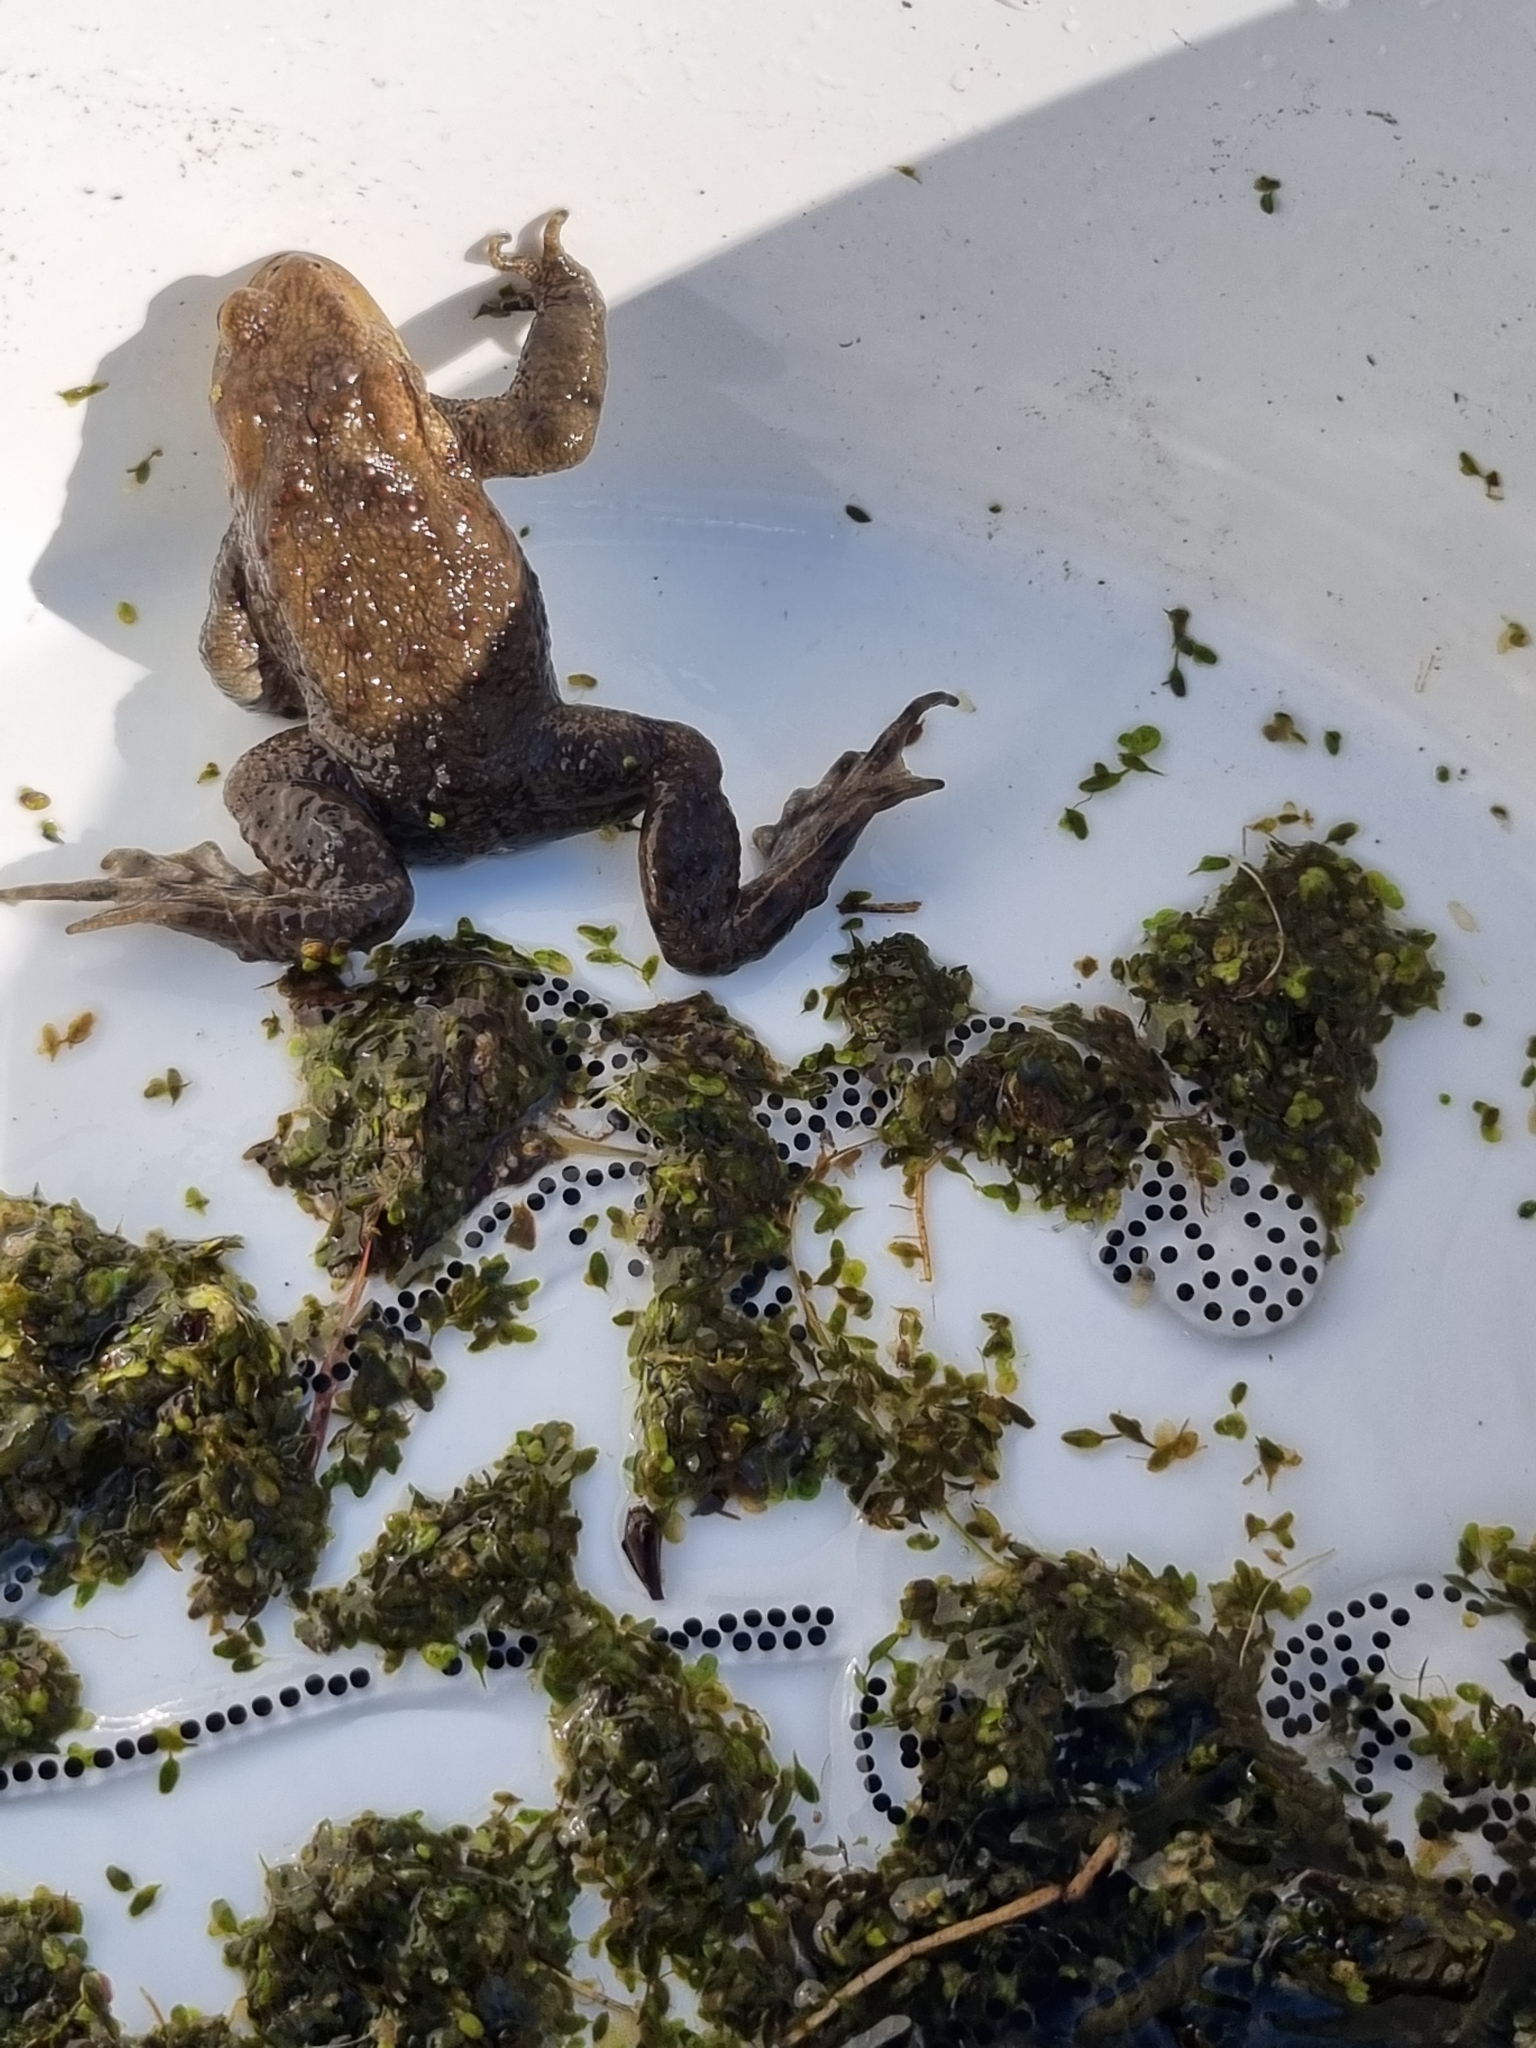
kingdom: Animalia
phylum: Chordata
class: Amphibia
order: Anura
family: Bufonidae
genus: Bufo
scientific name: Bufo bufo
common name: Common toad
